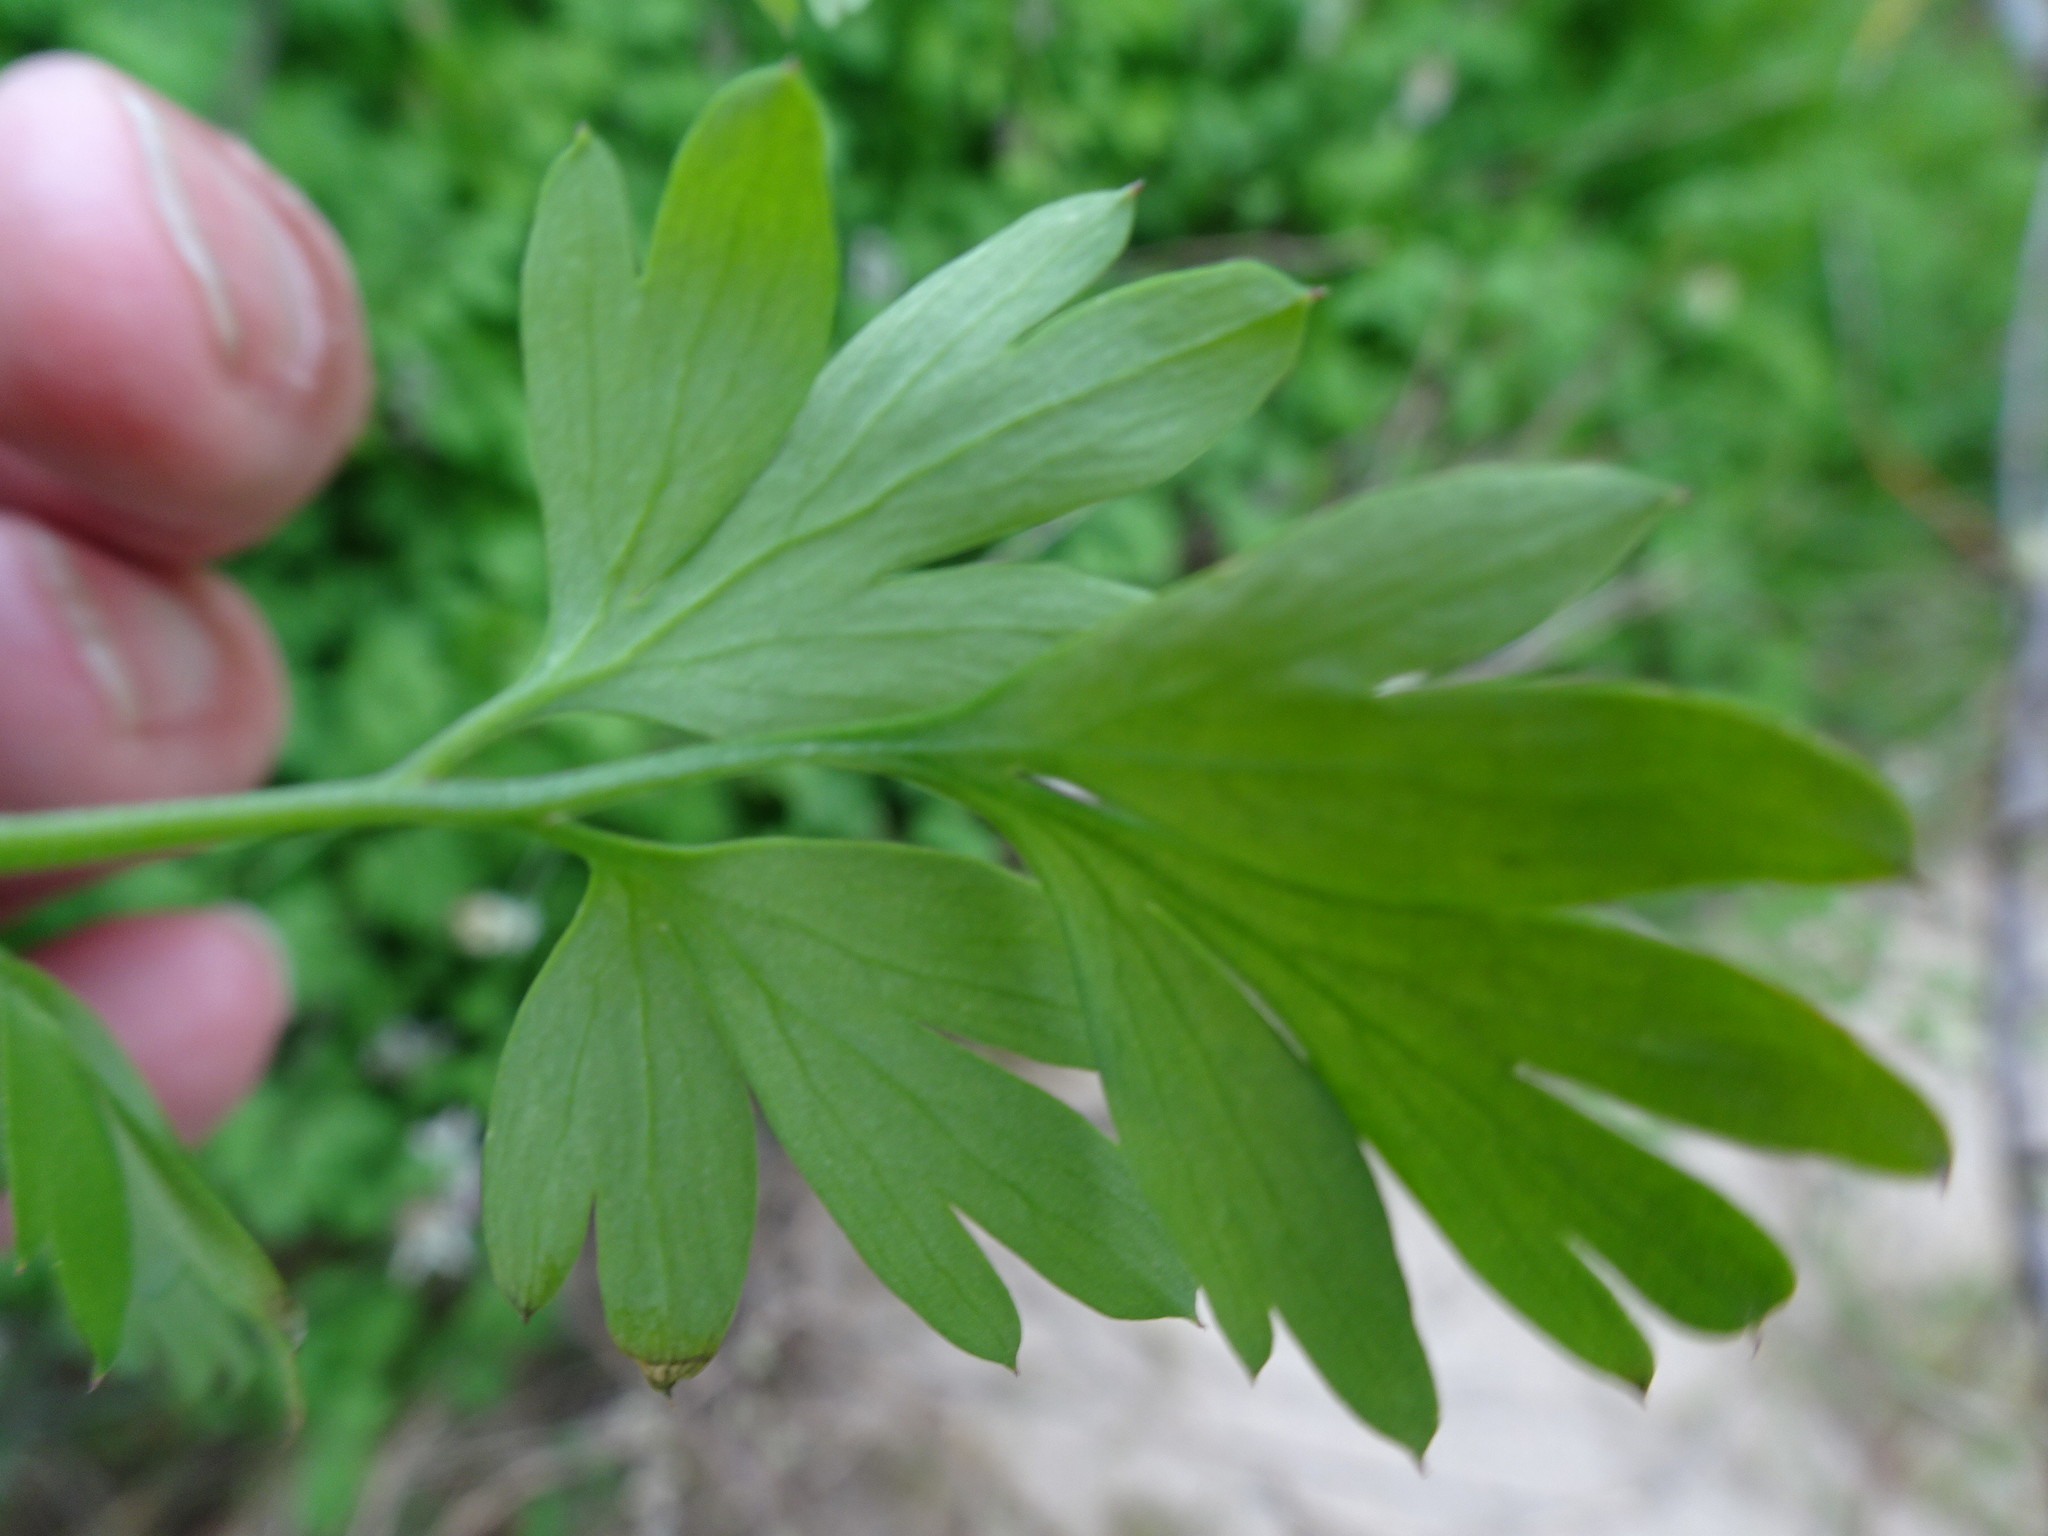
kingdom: Plantae
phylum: Tracheophyta
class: Magnoliopsida
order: Ranunculales
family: Papaveraceae
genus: Fumaria
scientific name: Fumaria capreolata
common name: White ramping-fumitory
